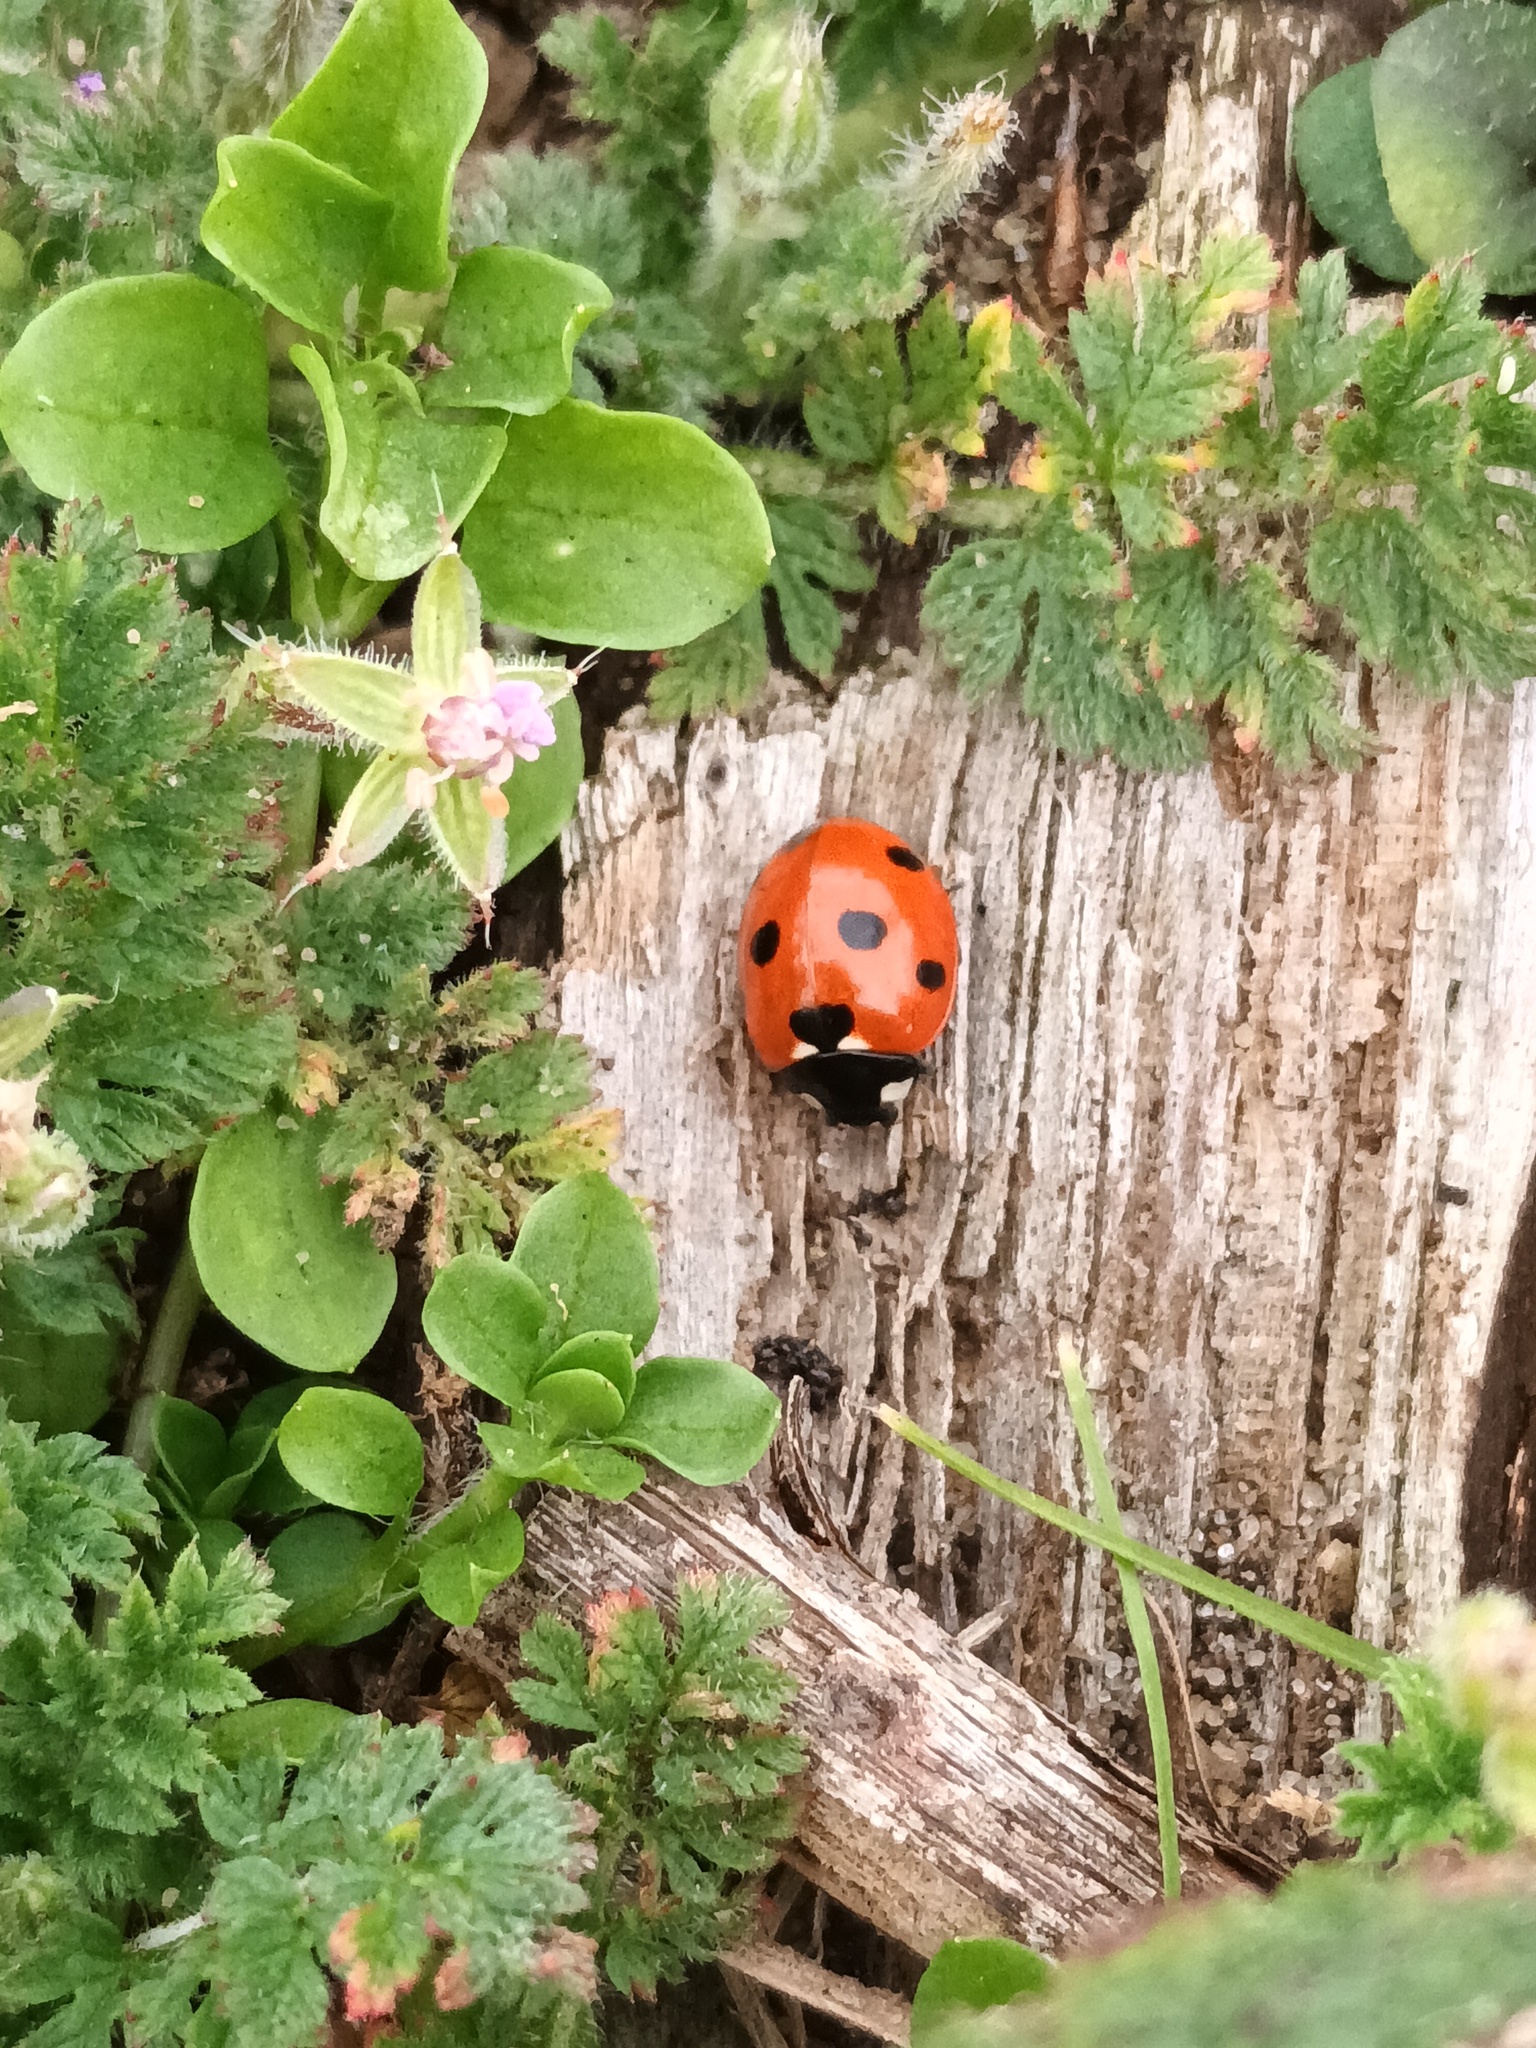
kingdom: Animalia
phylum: Arthropoda
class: Insecta
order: Coleoptera
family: Coccinellidae
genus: Coccinella
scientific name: Coccinella septempunctata
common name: Sevenspotted lady beetle
